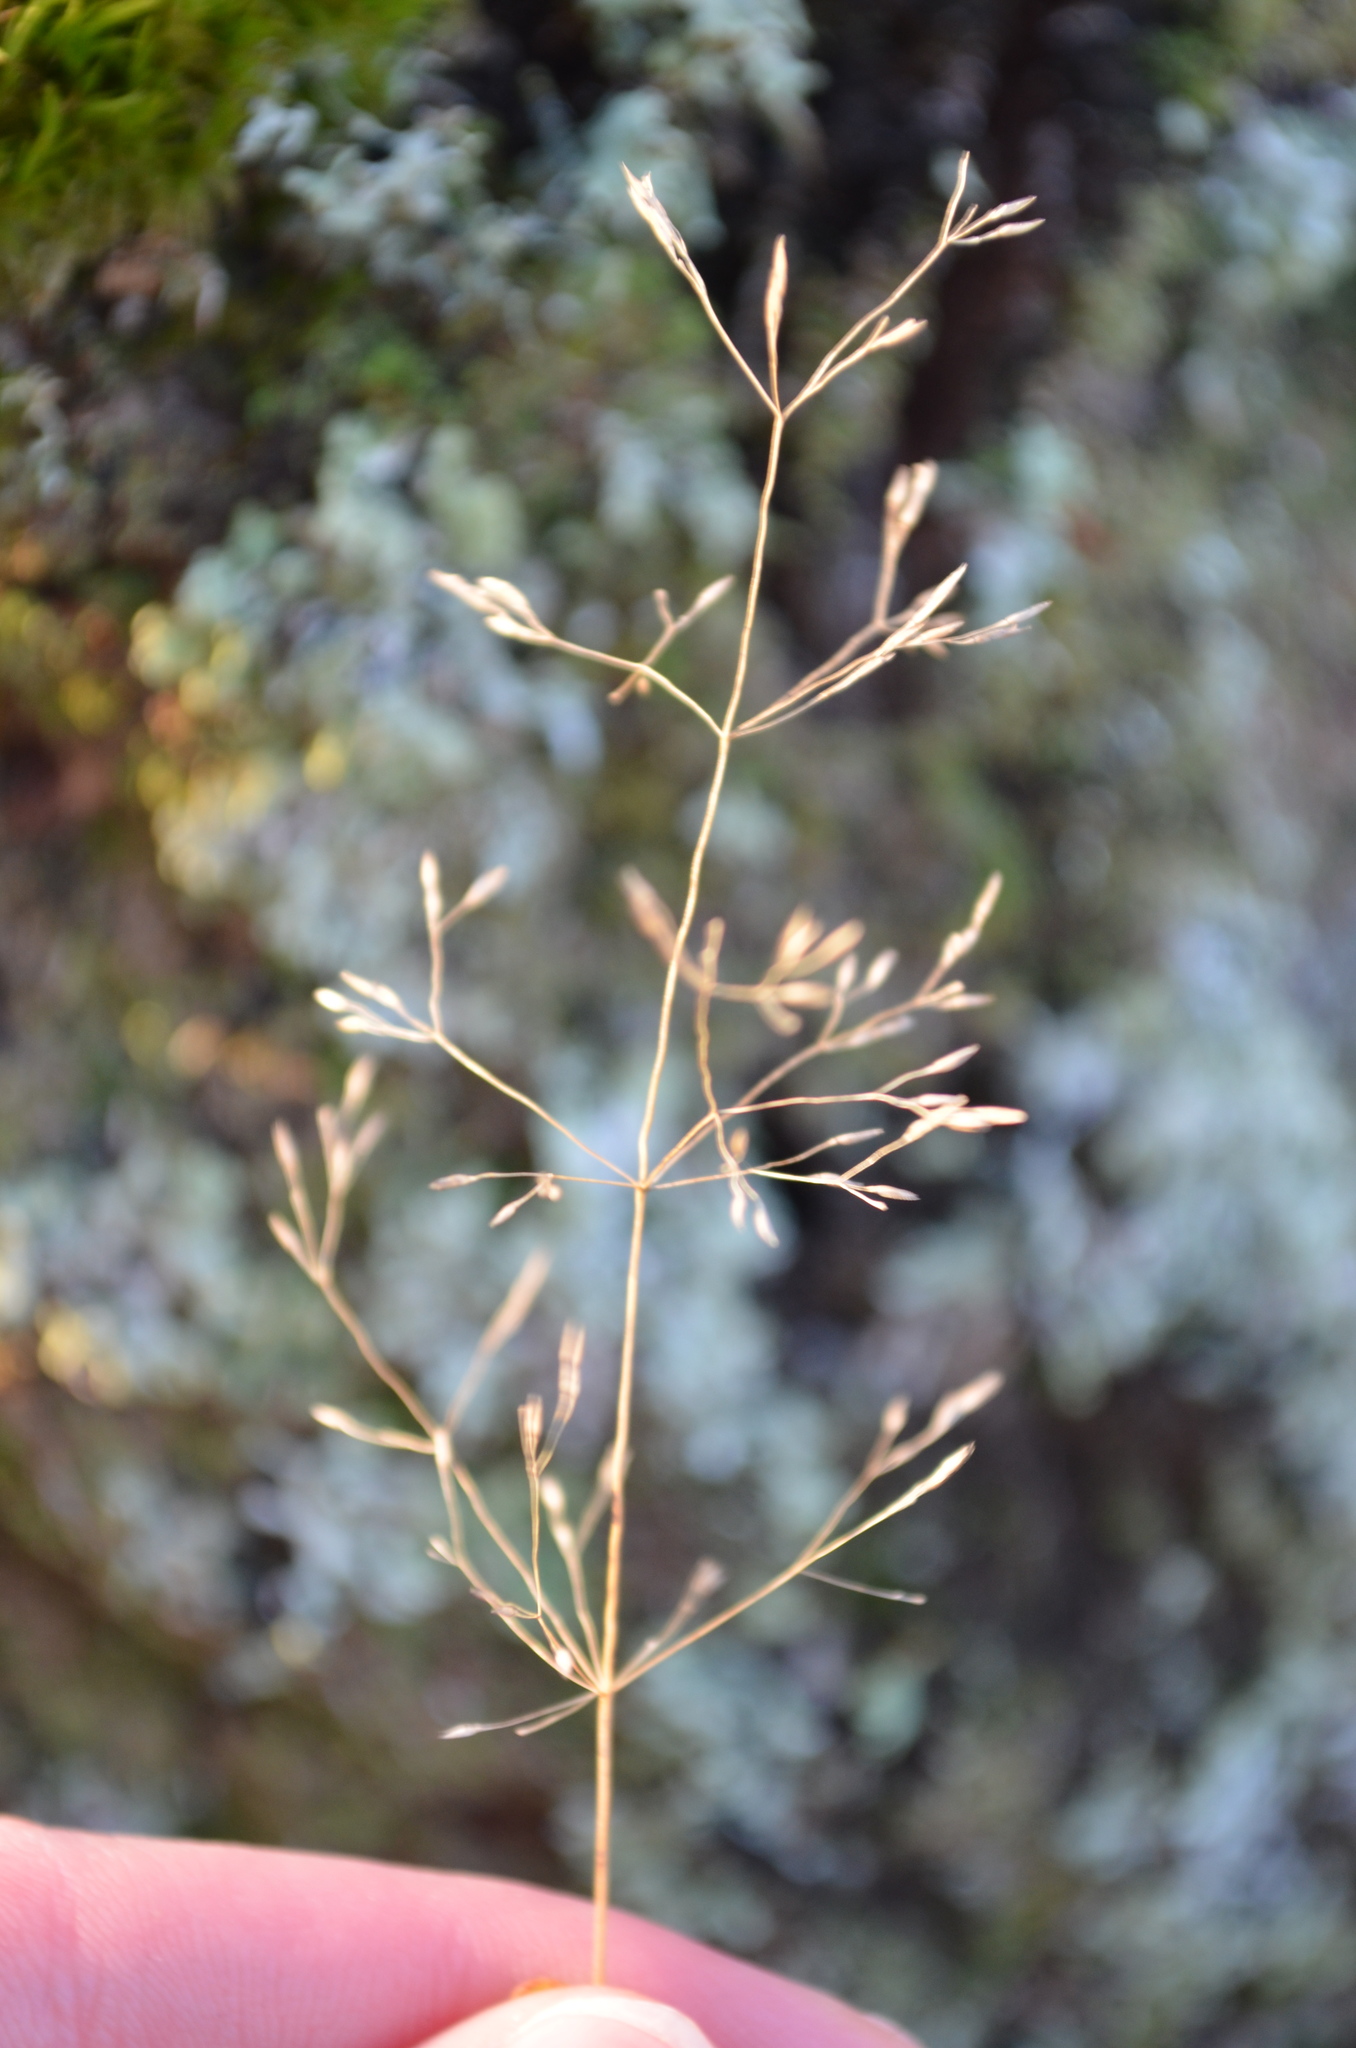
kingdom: Plantae
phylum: Tracheophyta
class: Liliopsida
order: Poales
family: Poaceae
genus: Agrostis
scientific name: Agrostis capillaris
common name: Colonial bentgrass
